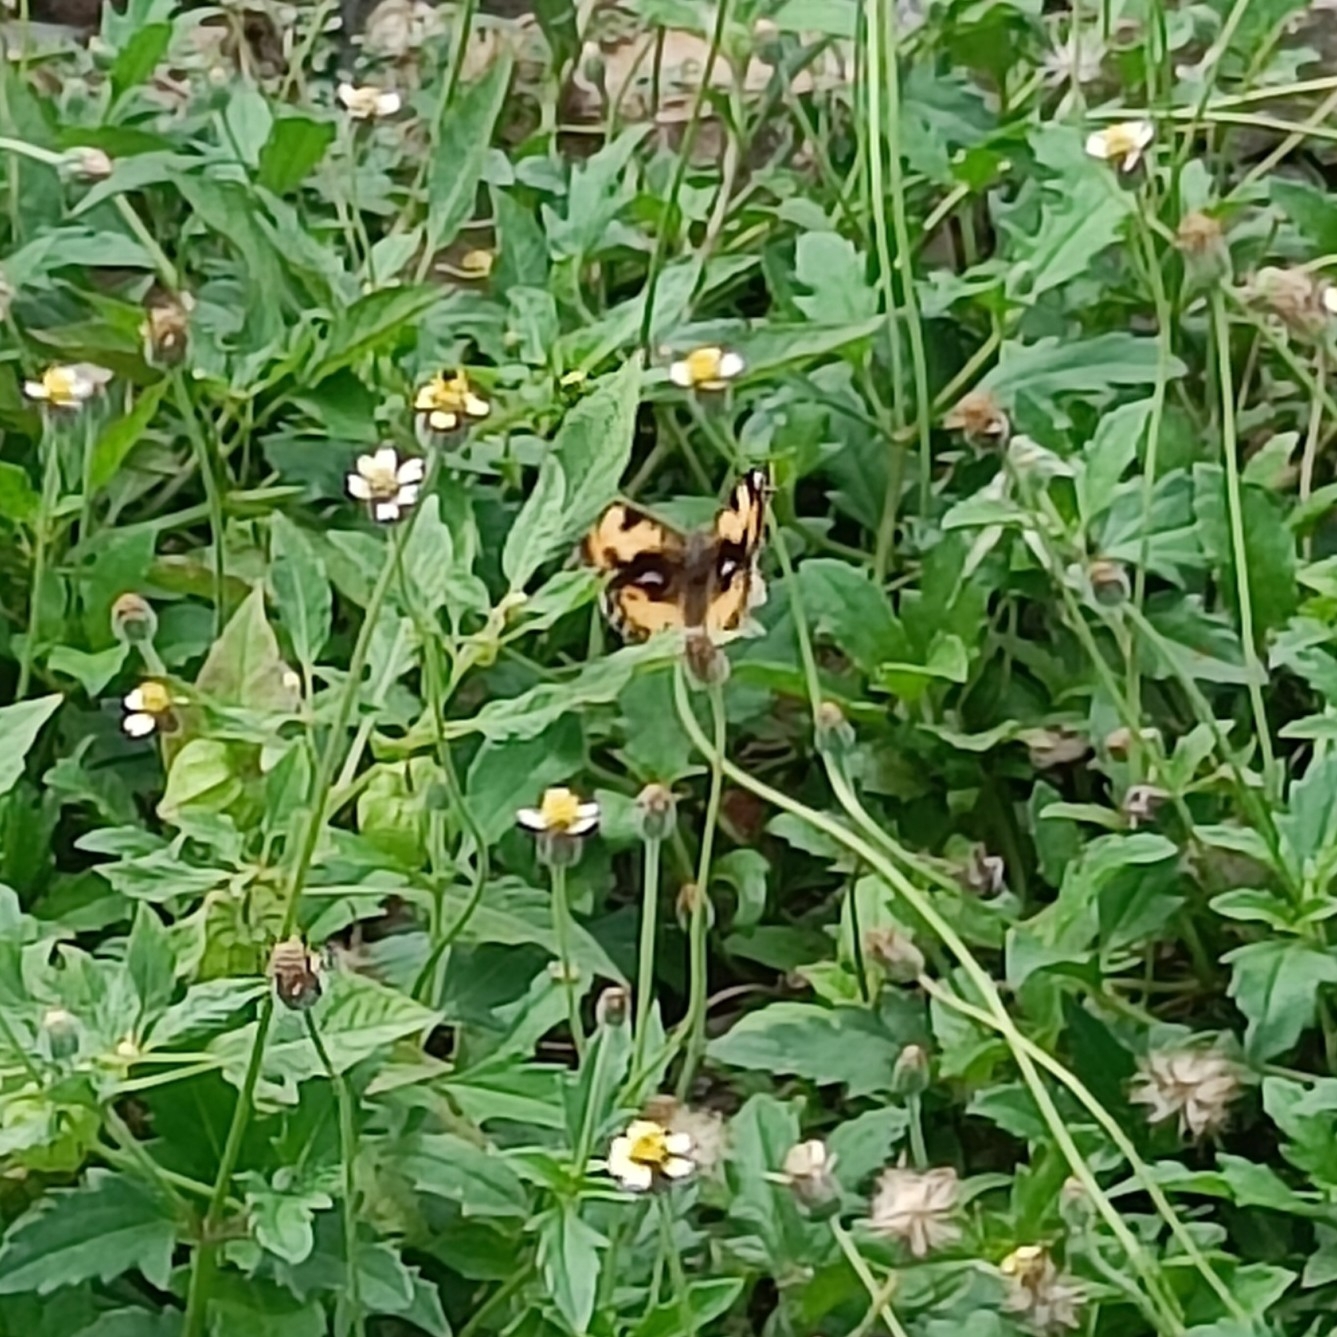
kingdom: Animalia
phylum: Arthropoda
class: Insecta
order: Lepidoptera
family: Nymphalidae
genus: Junonia
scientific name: Junonia hierta
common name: Yellow pansy
